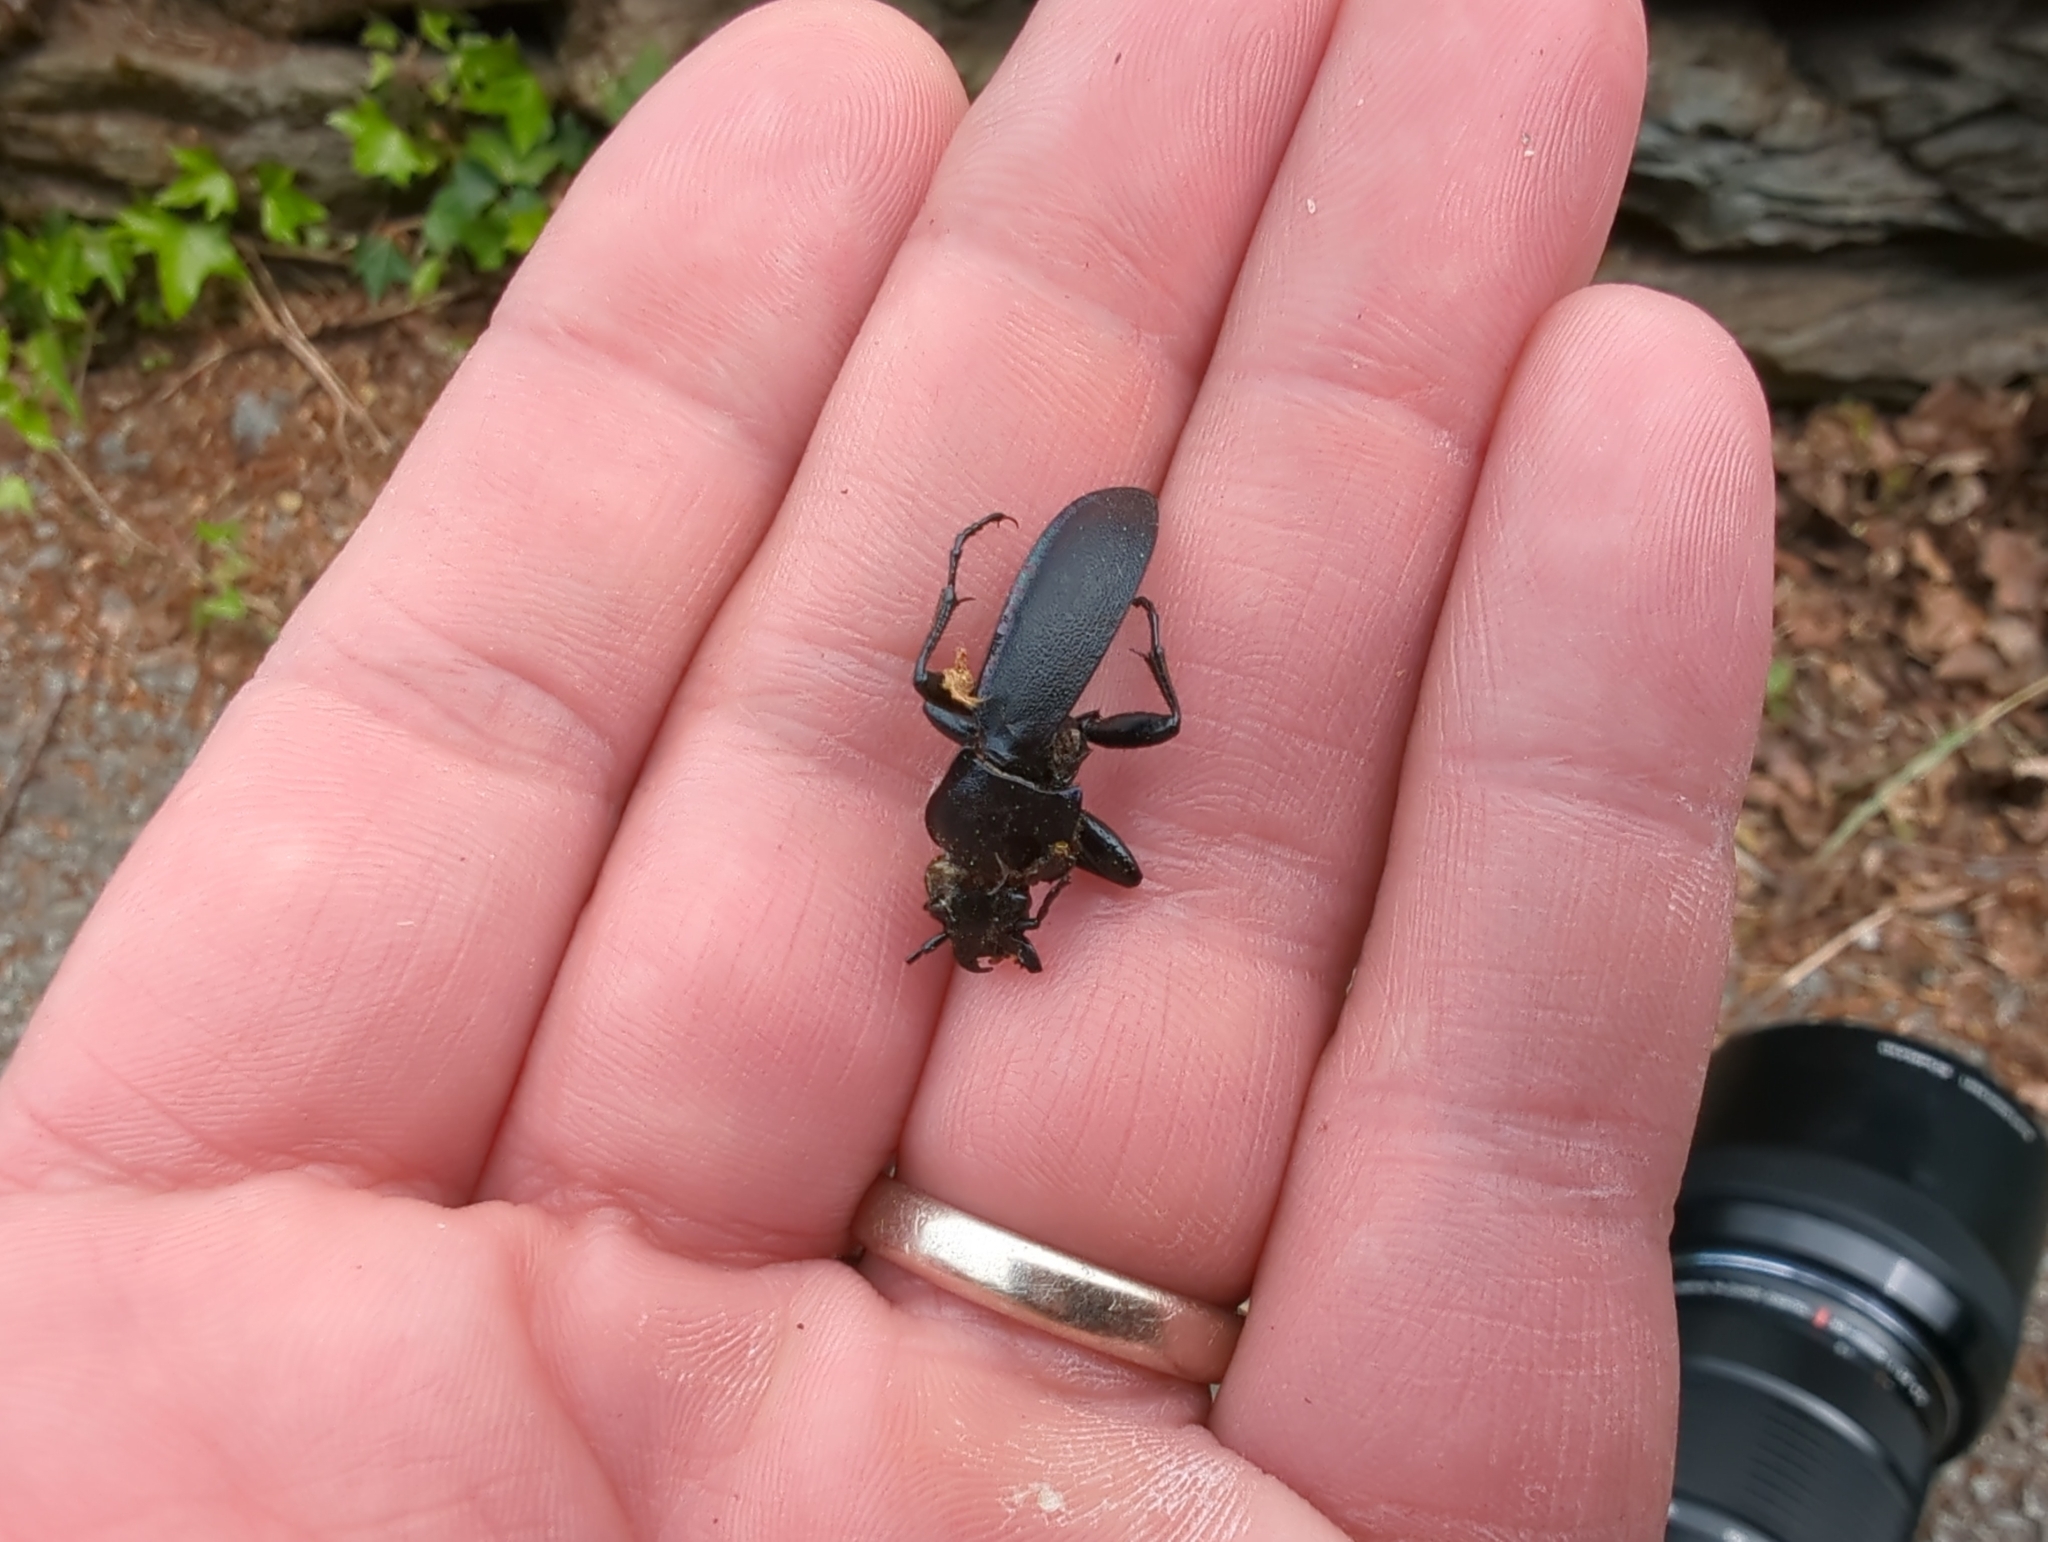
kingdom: Animalia
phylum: Arthropoda
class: Insecta
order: Coleoptera
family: Carabidae
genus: Carabus
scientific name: Carabus violaceus
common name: Violet ground beetle
